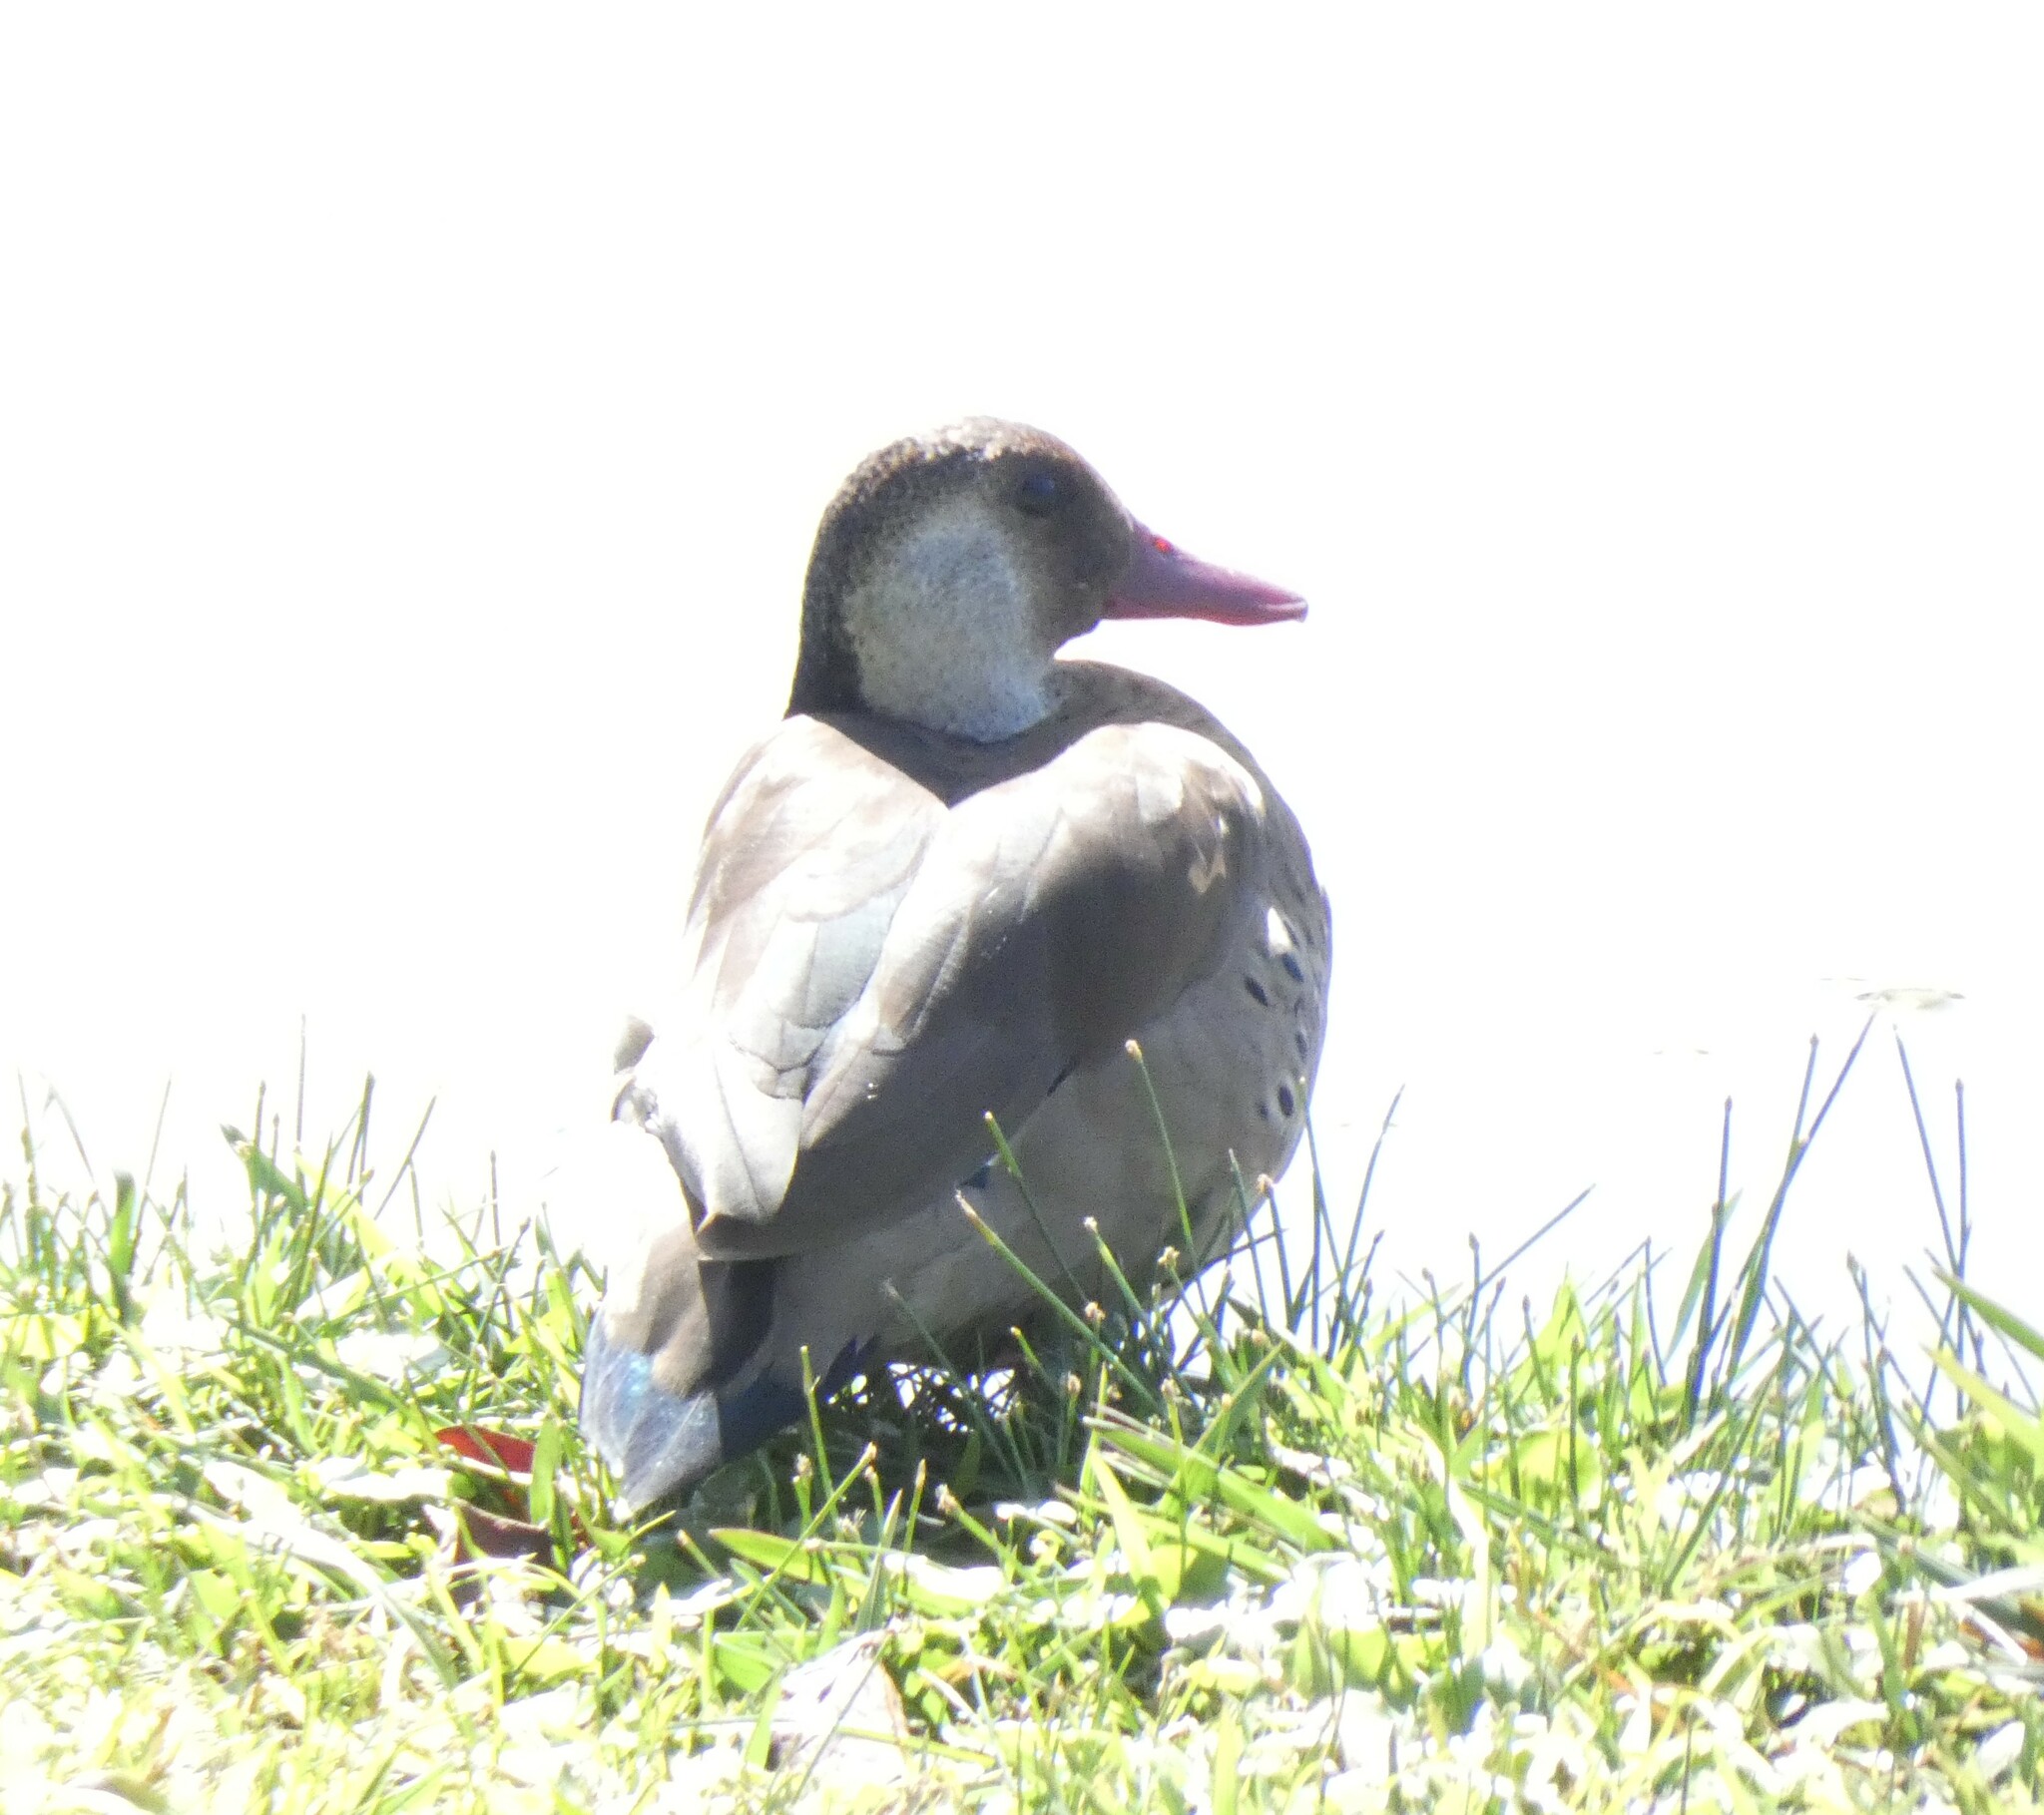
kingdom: Animalia
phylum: Chordata
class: Aves
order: Anseriformes
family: Anatidae
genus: Amazonetta
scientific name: Amazonetta brasiliensis
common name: Brazilian teal
